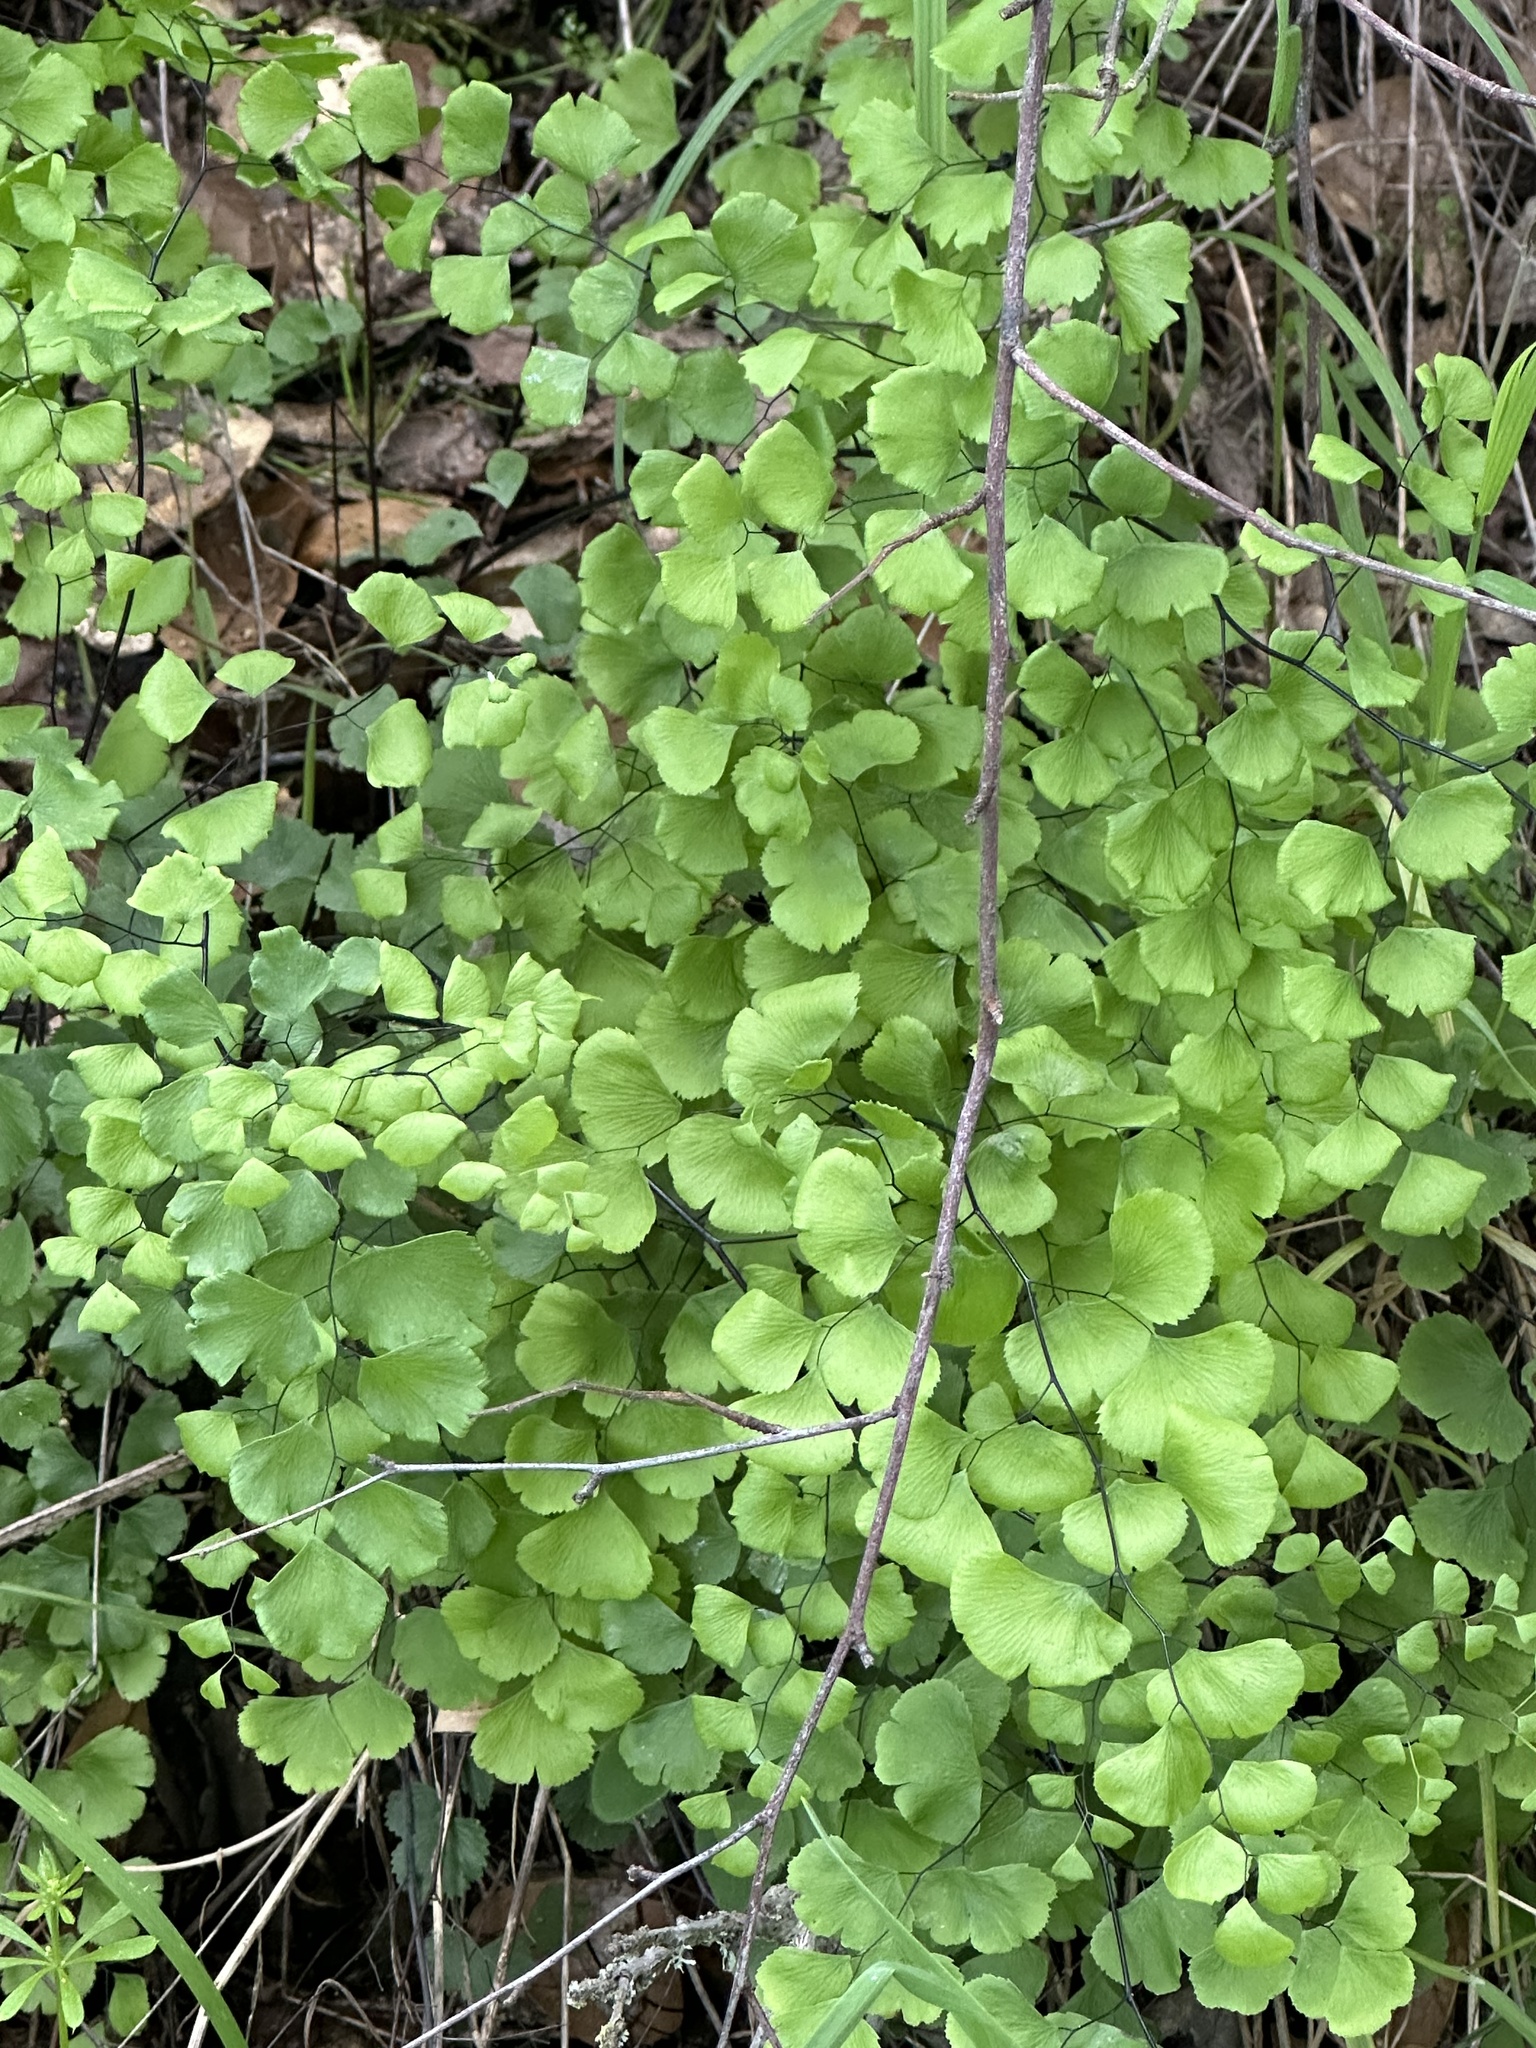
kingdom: Plantae
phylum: Tracheophyta
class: Polypodiopsida
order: Polypodiales
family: Pteridaceae
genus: Adiantum
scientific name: Adiantum jordanii
